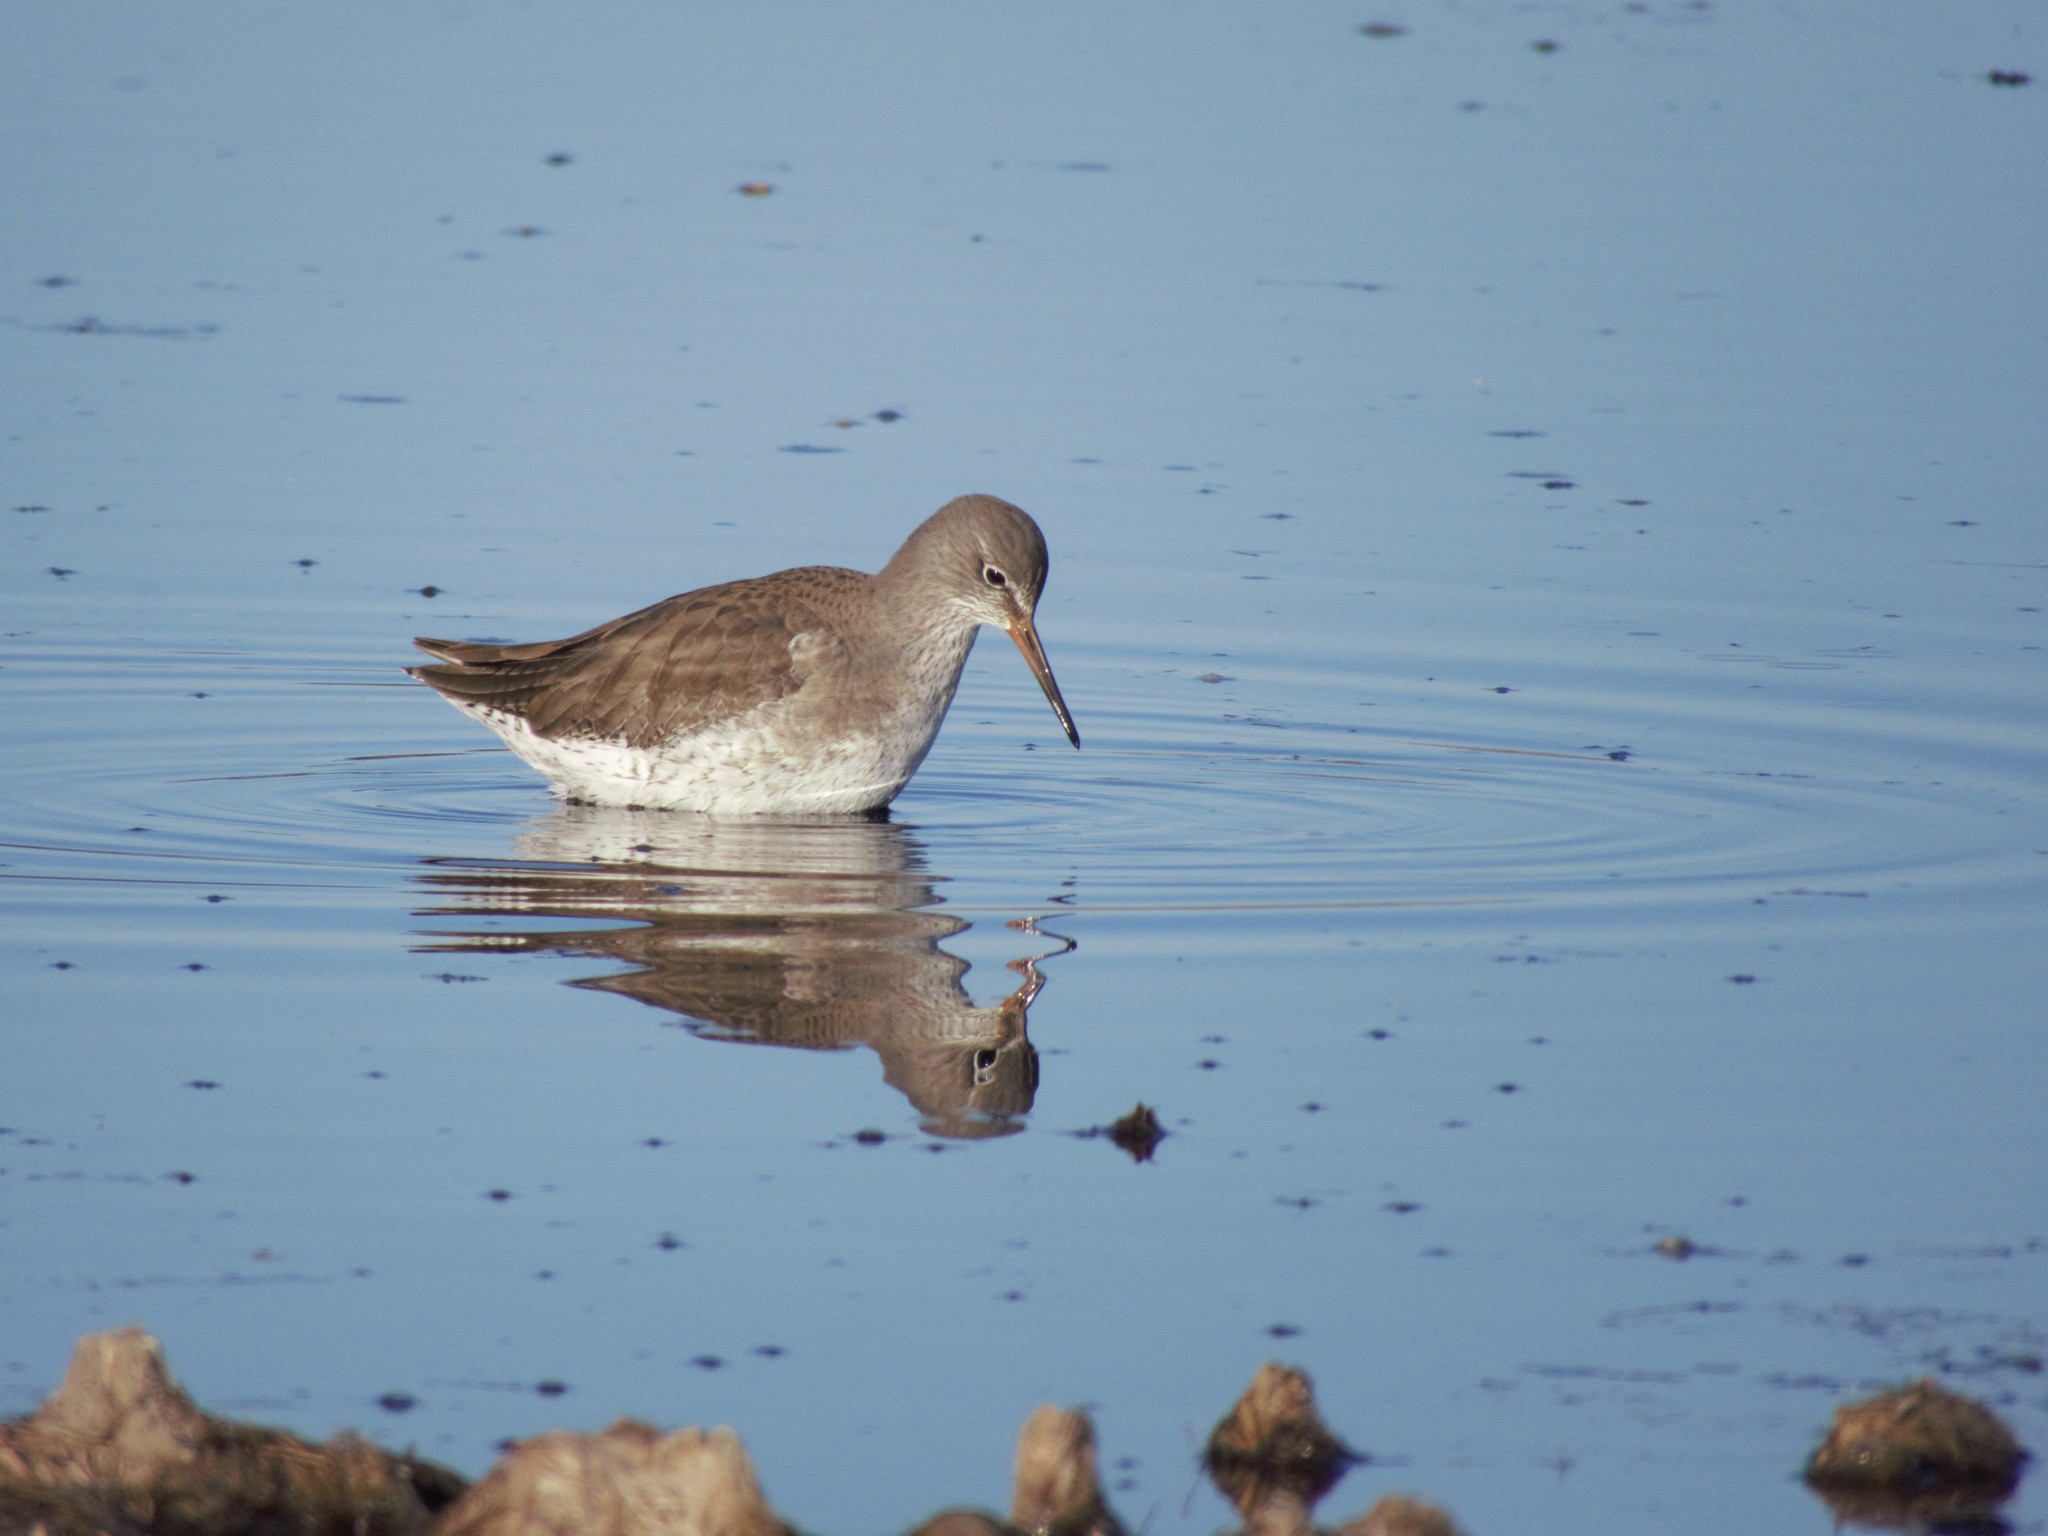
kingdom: Animalia
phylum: Chordata
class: Aves
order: Charadriiformes
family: Scolopacidae
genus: Tringa
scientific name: Tringa totanus
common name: Common redshank
